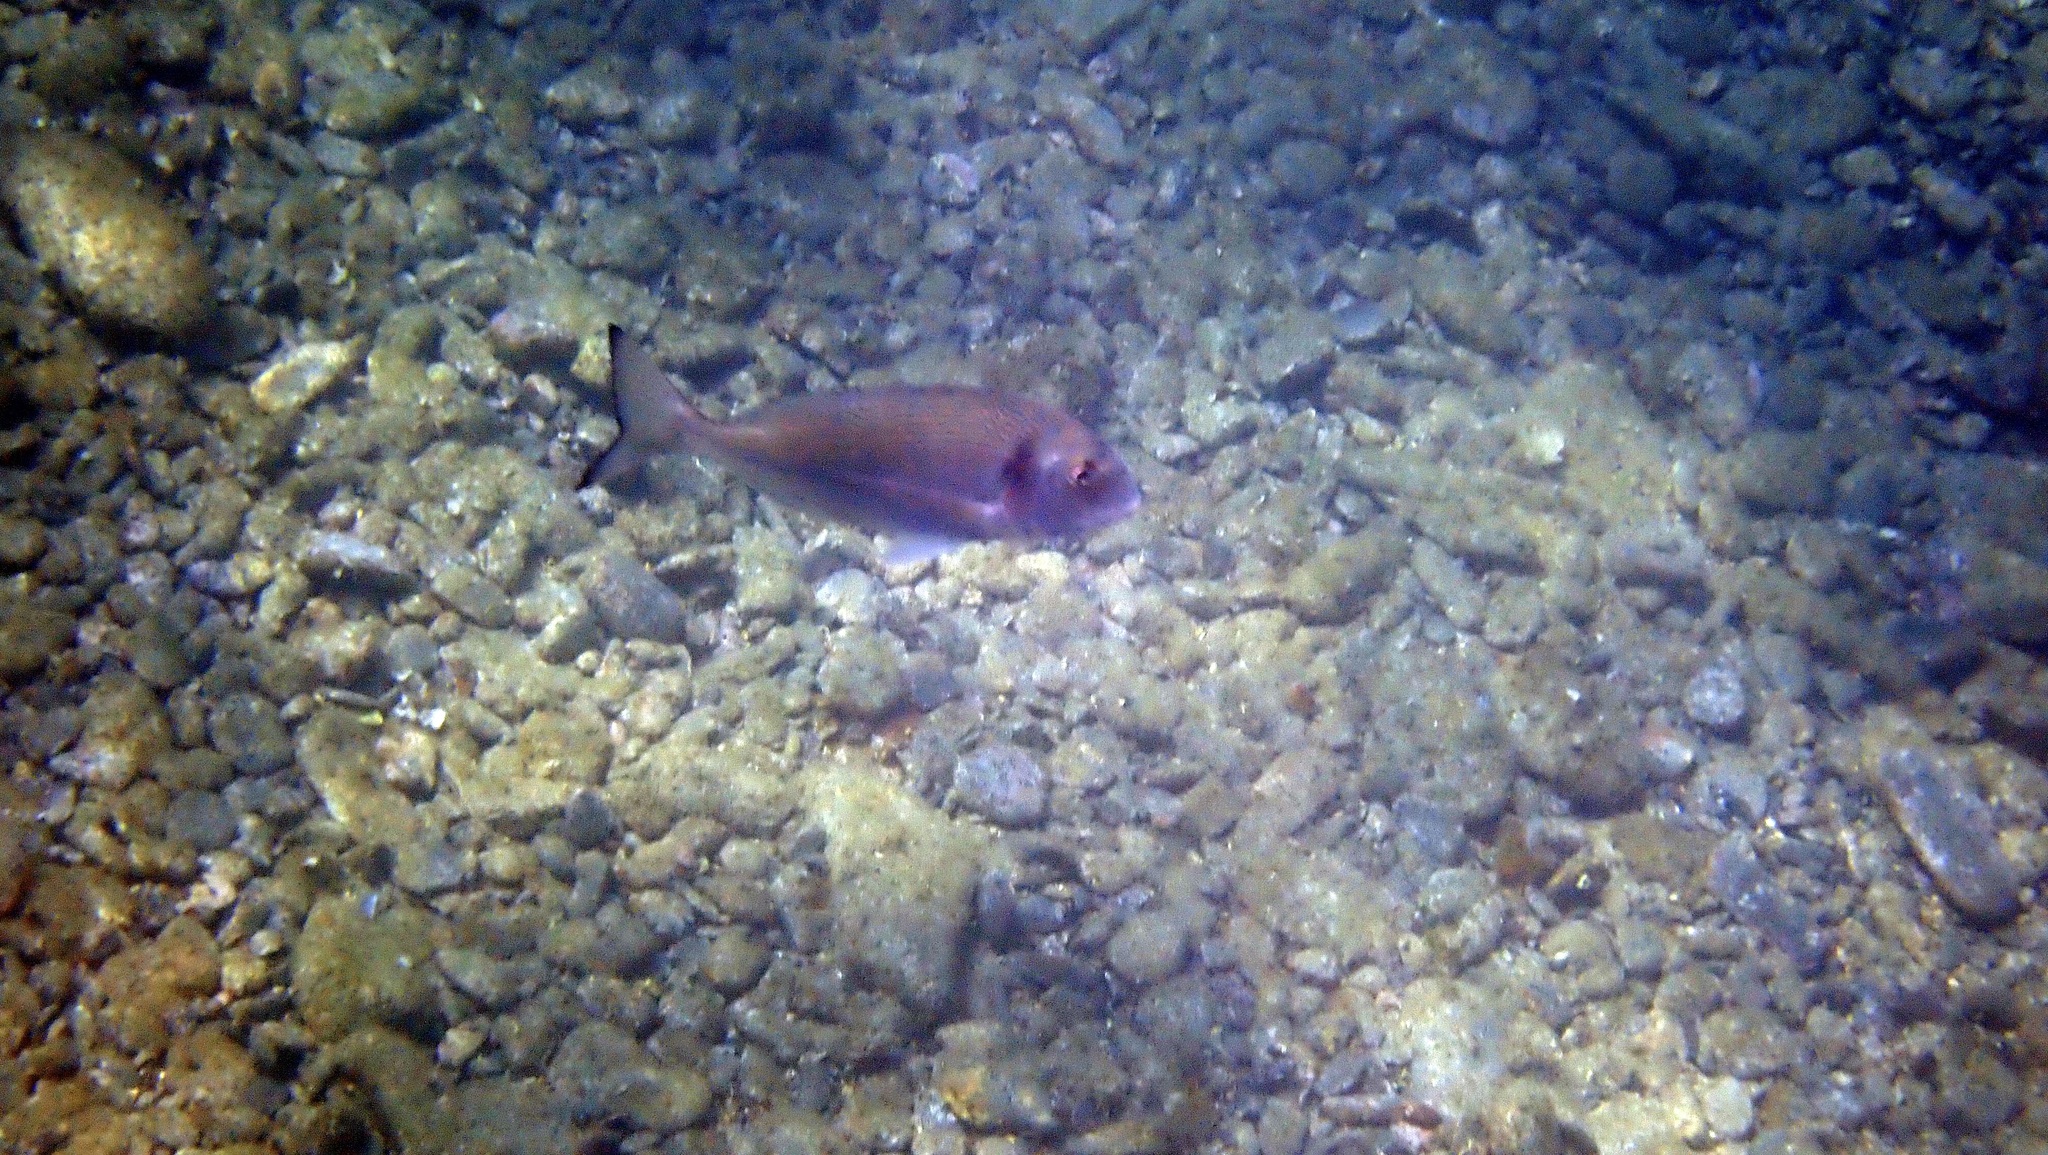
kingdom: Animalia
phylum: Chordata
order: Perciformes
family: Sparidae
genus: Sparus
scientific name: Sparus aurata
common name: Gilthead
